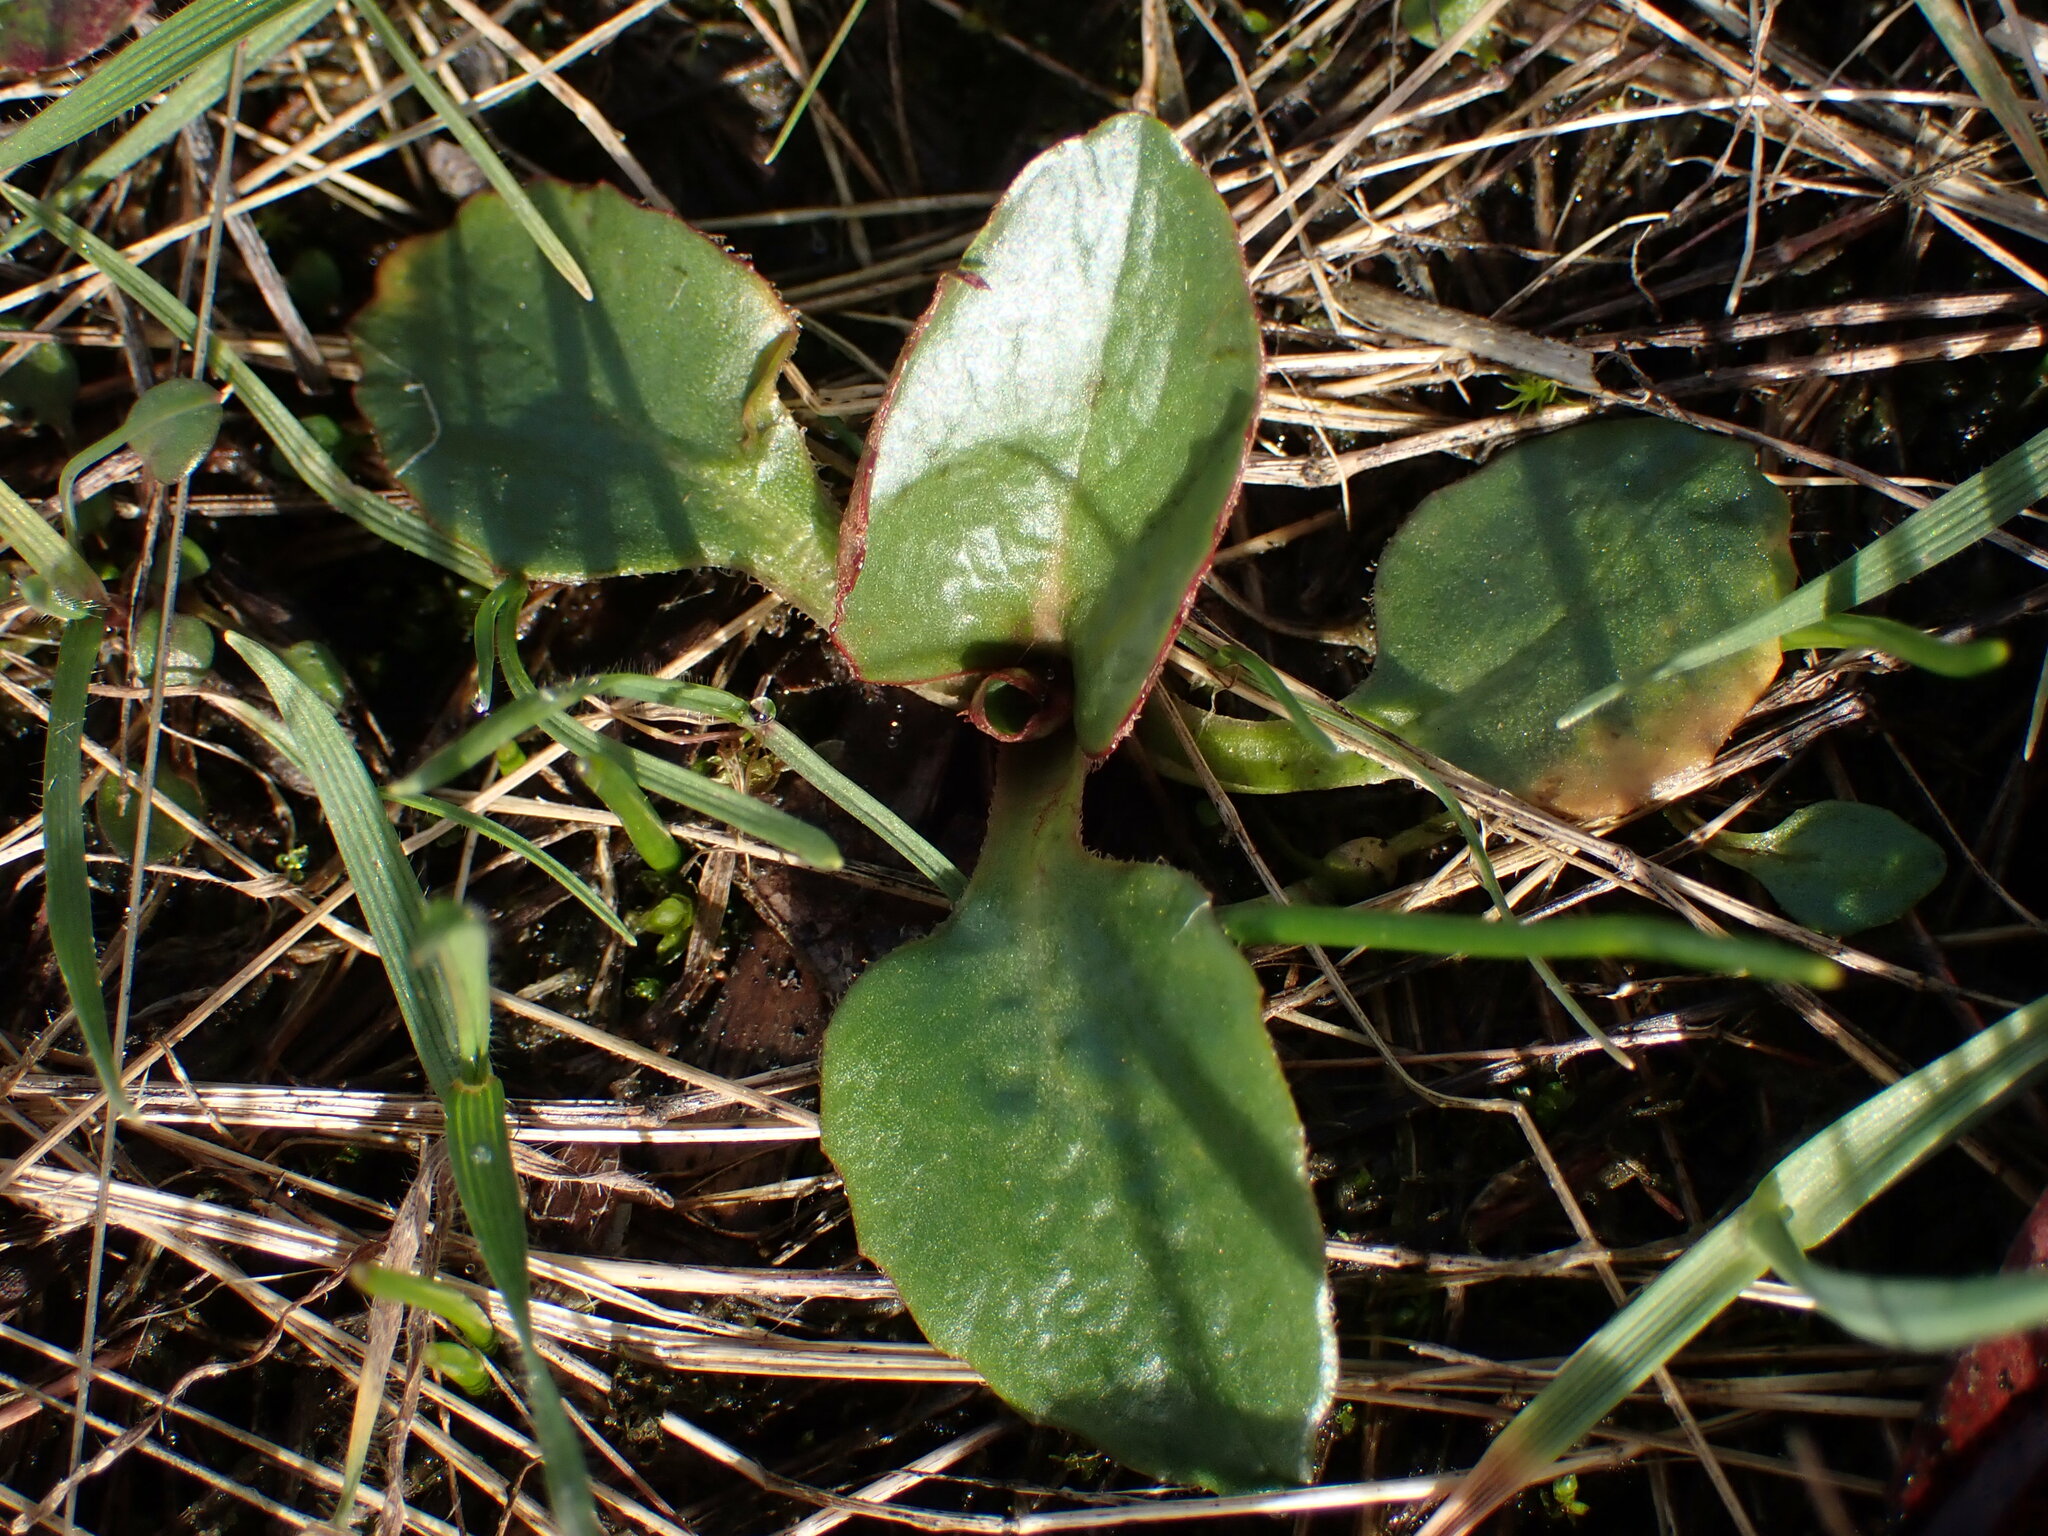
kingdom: Plantae
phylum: Tracheophyta
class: Magnoliopsida
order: Saxifragales
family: Saxifragaceae
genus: Micranthes
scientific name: Micranthes integrifolia
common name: Wholeleaf saxifrage
